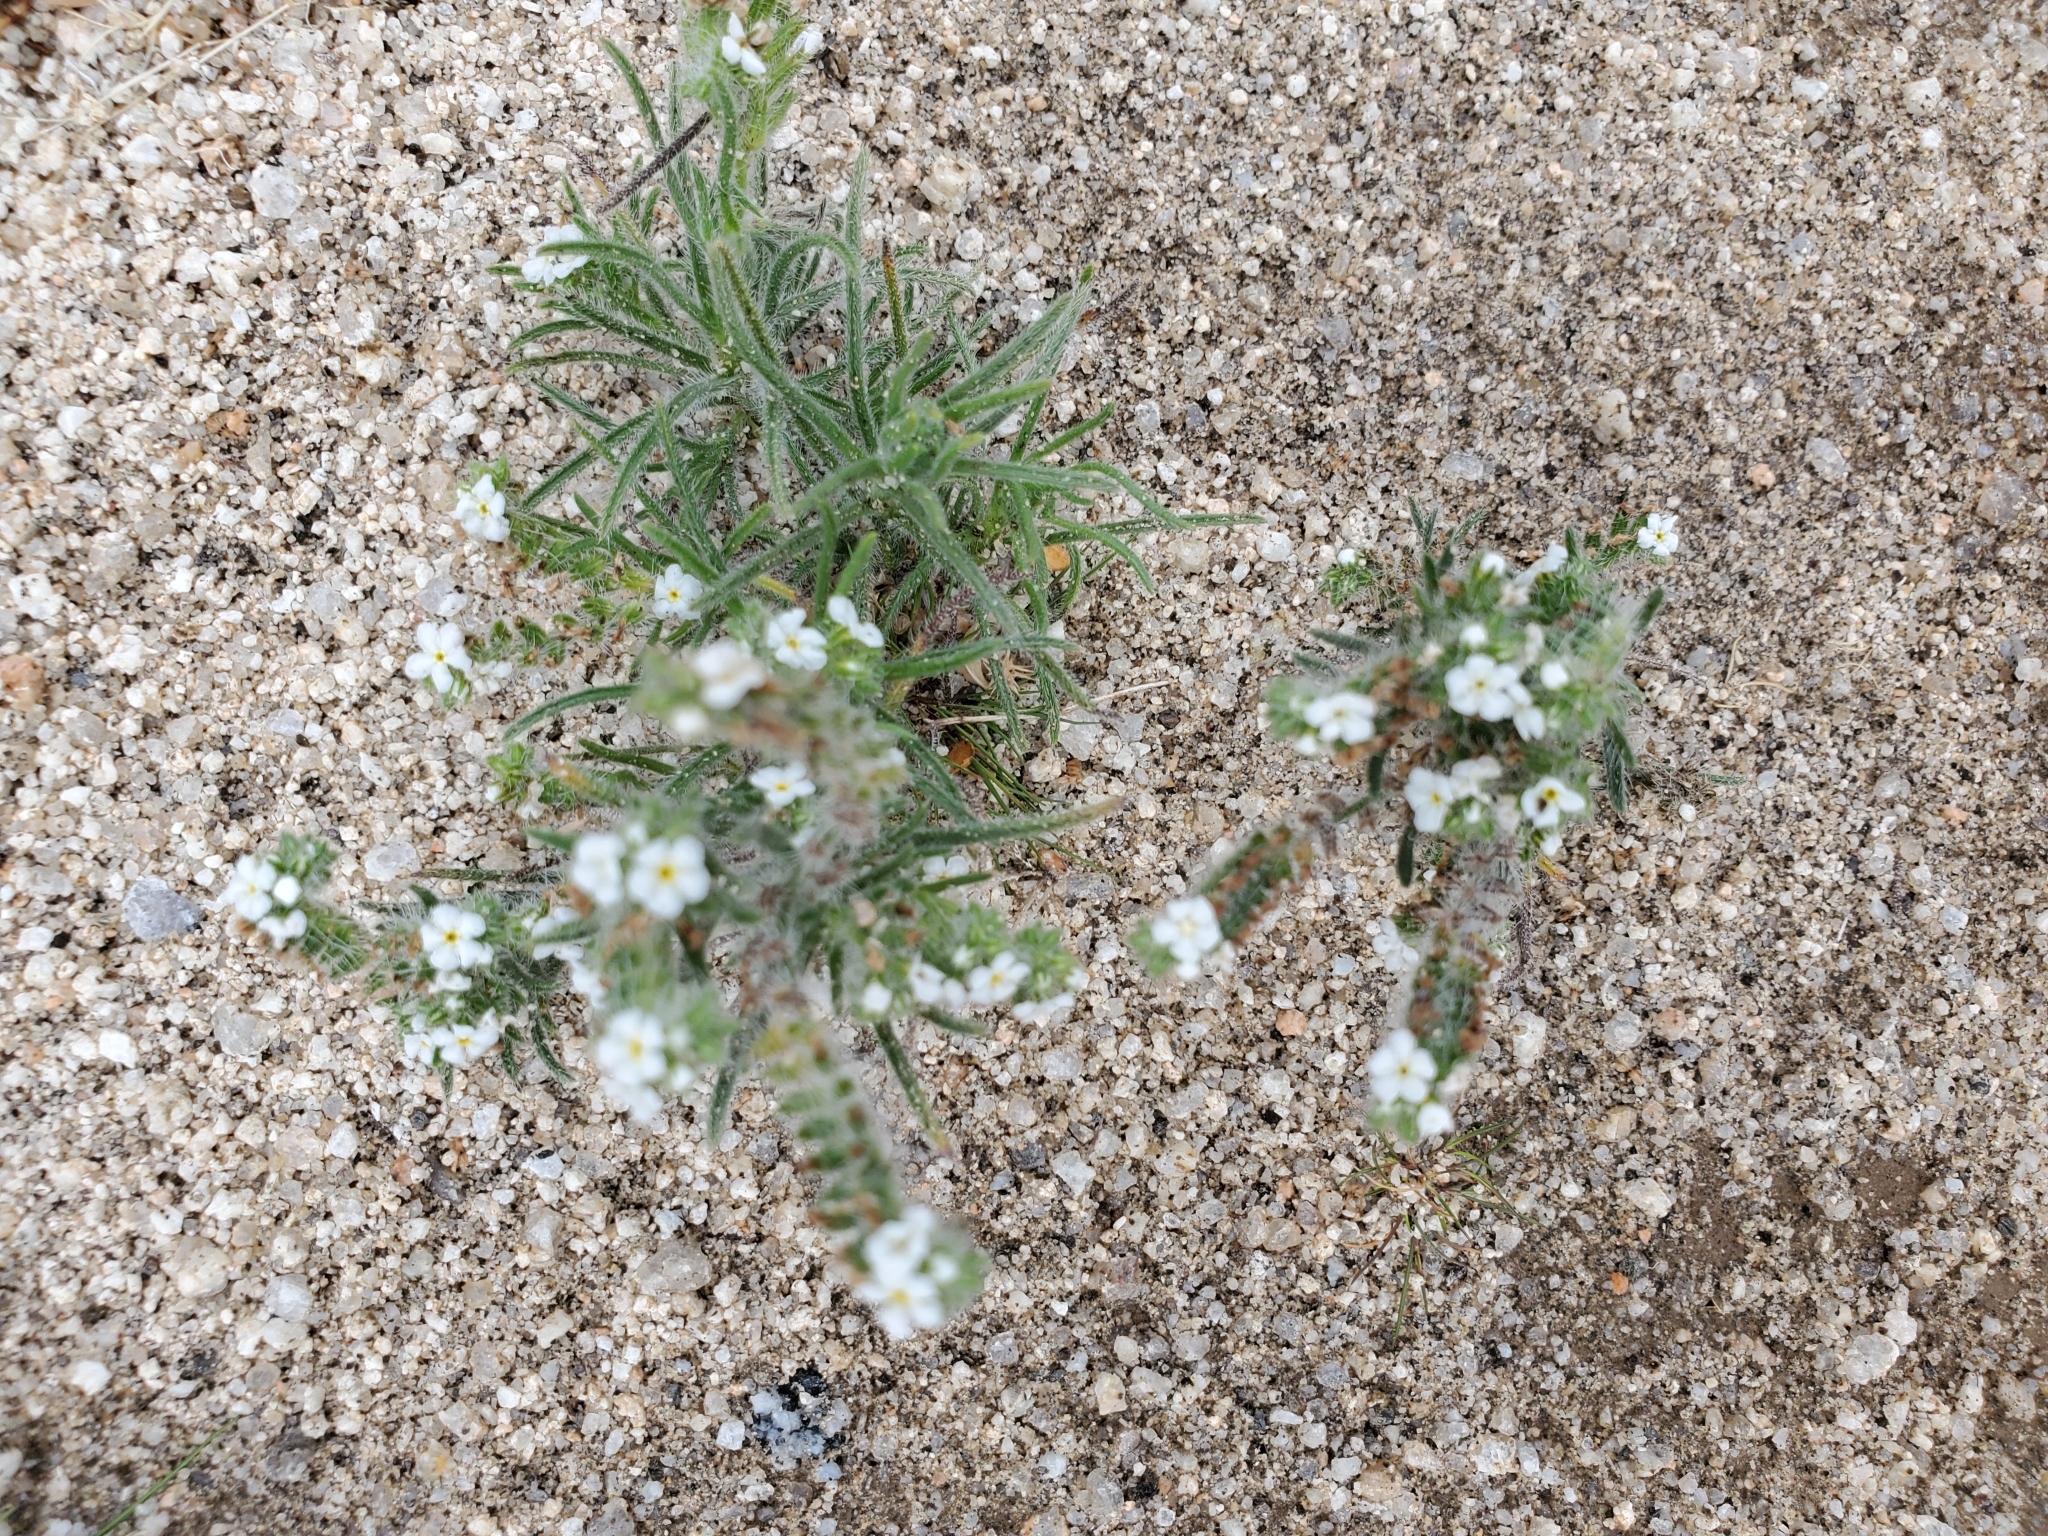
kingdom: Plantae
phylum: Tracheophyta
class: Magnoliopsida
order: Boraginales
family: Boraginaceae
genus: Johnstonella
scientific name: Johnstonella angustifolia
